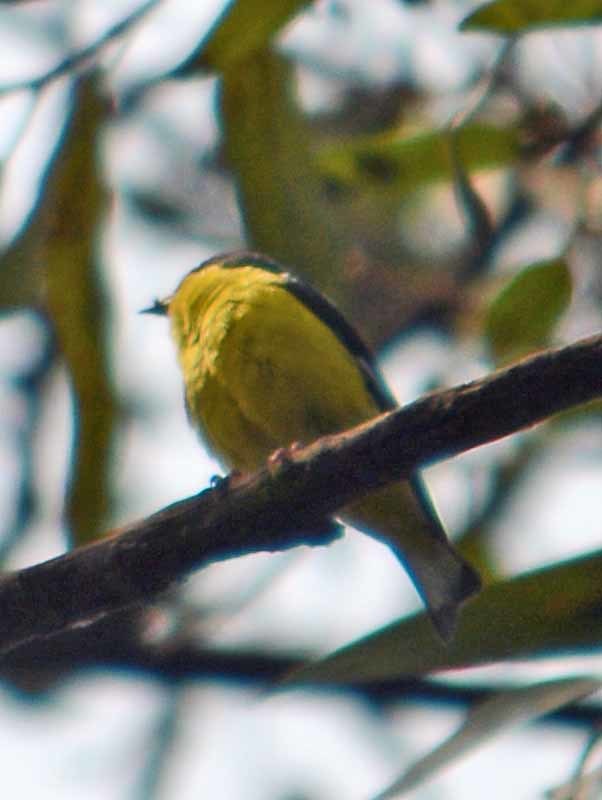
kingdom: Animalia
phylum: Chordata
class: Aves
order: Passeriformes
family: Fringillidae
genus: Spinus
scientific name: Spinus psaltria
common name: Lesser goldfinch
